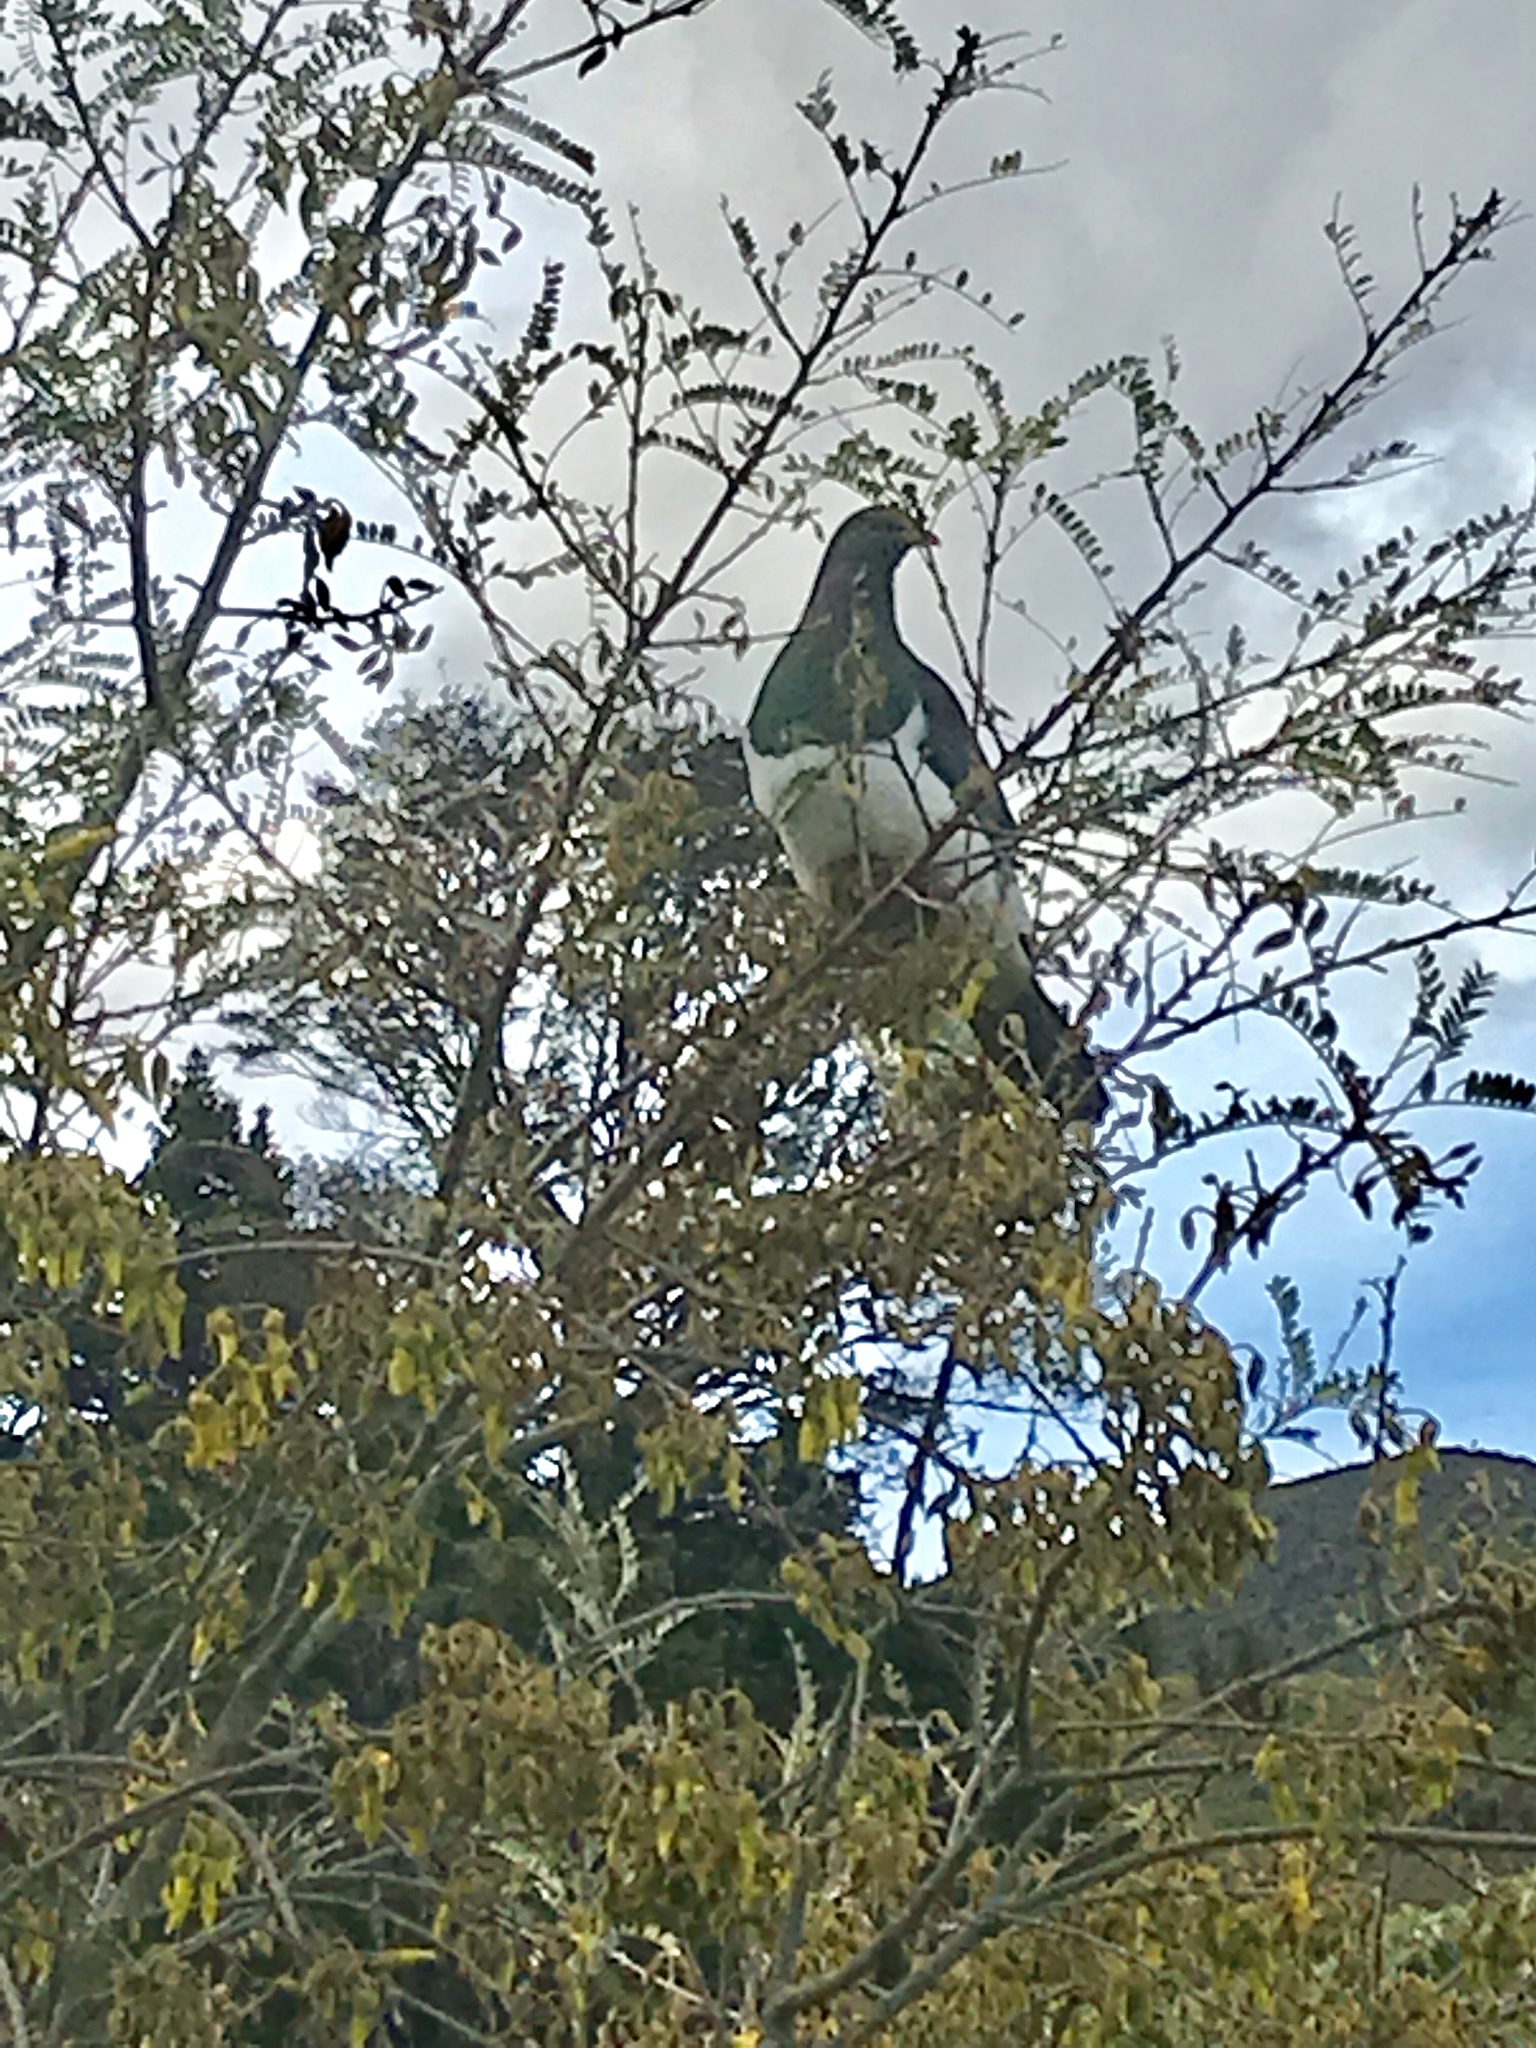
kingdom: Animalia
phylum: Chordata
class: Aves
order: Columbiformes
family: Columbidae
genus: Hemiphaga
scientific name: Hemiphaga novaeseelandiae
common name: New zealand pigeon
